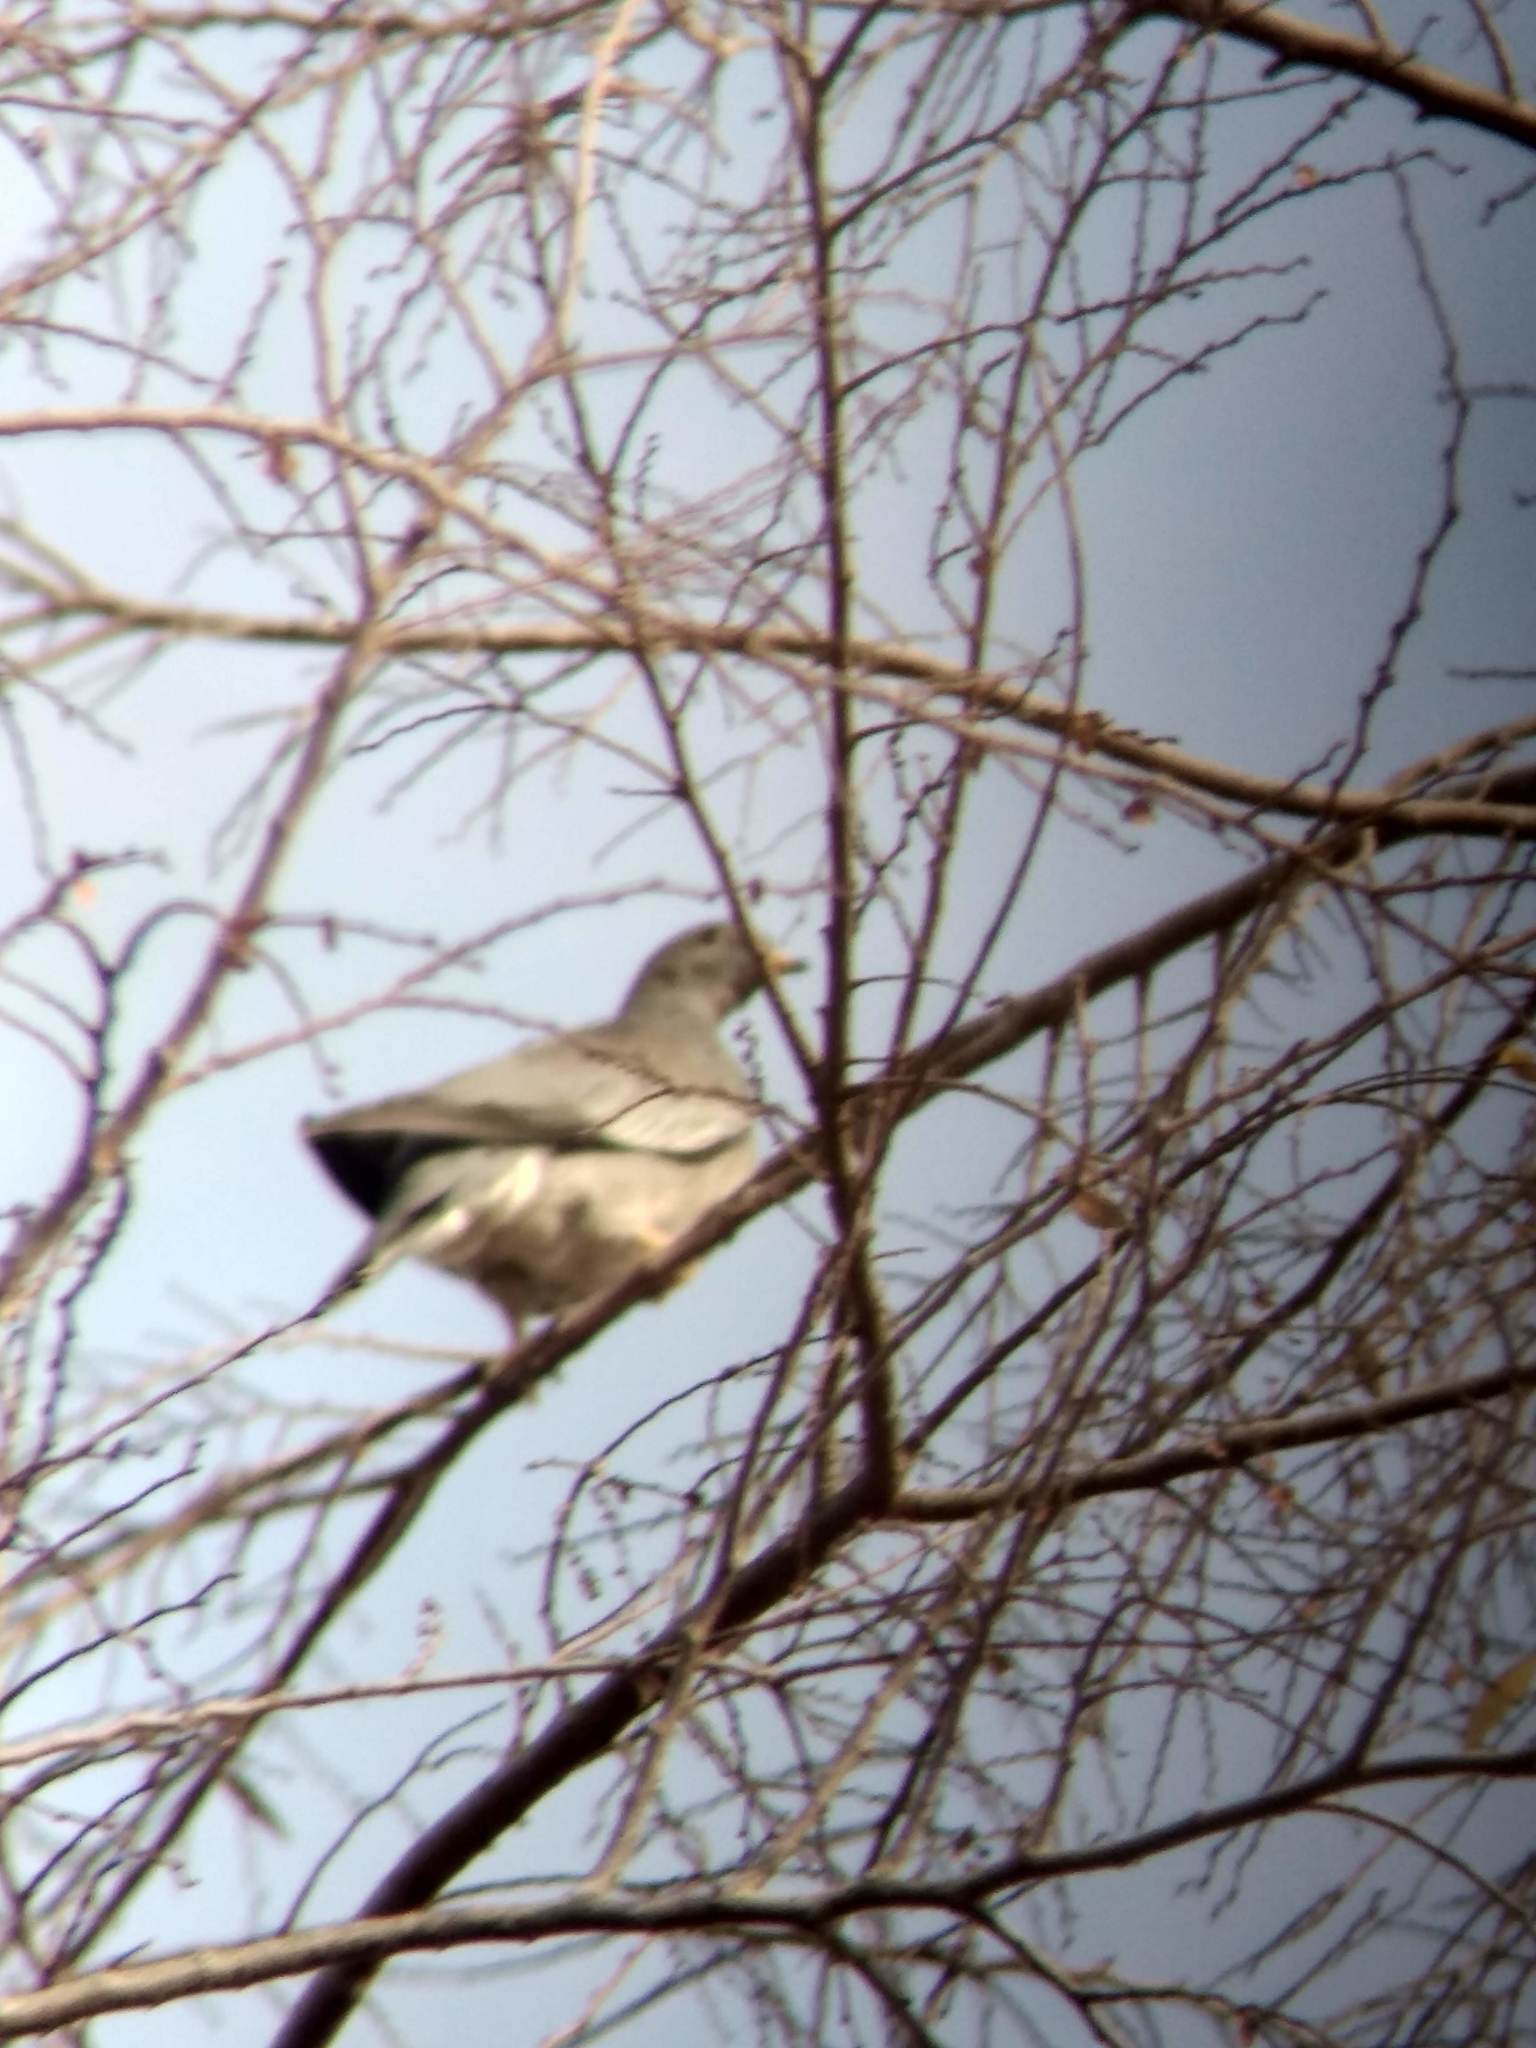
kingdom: Animalia
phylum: Chordata
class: Aves
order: Columbiformes
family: Columbidae
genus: Patagioenas
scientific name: Patagioenas fasciata
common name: Band-tailed pigeon
